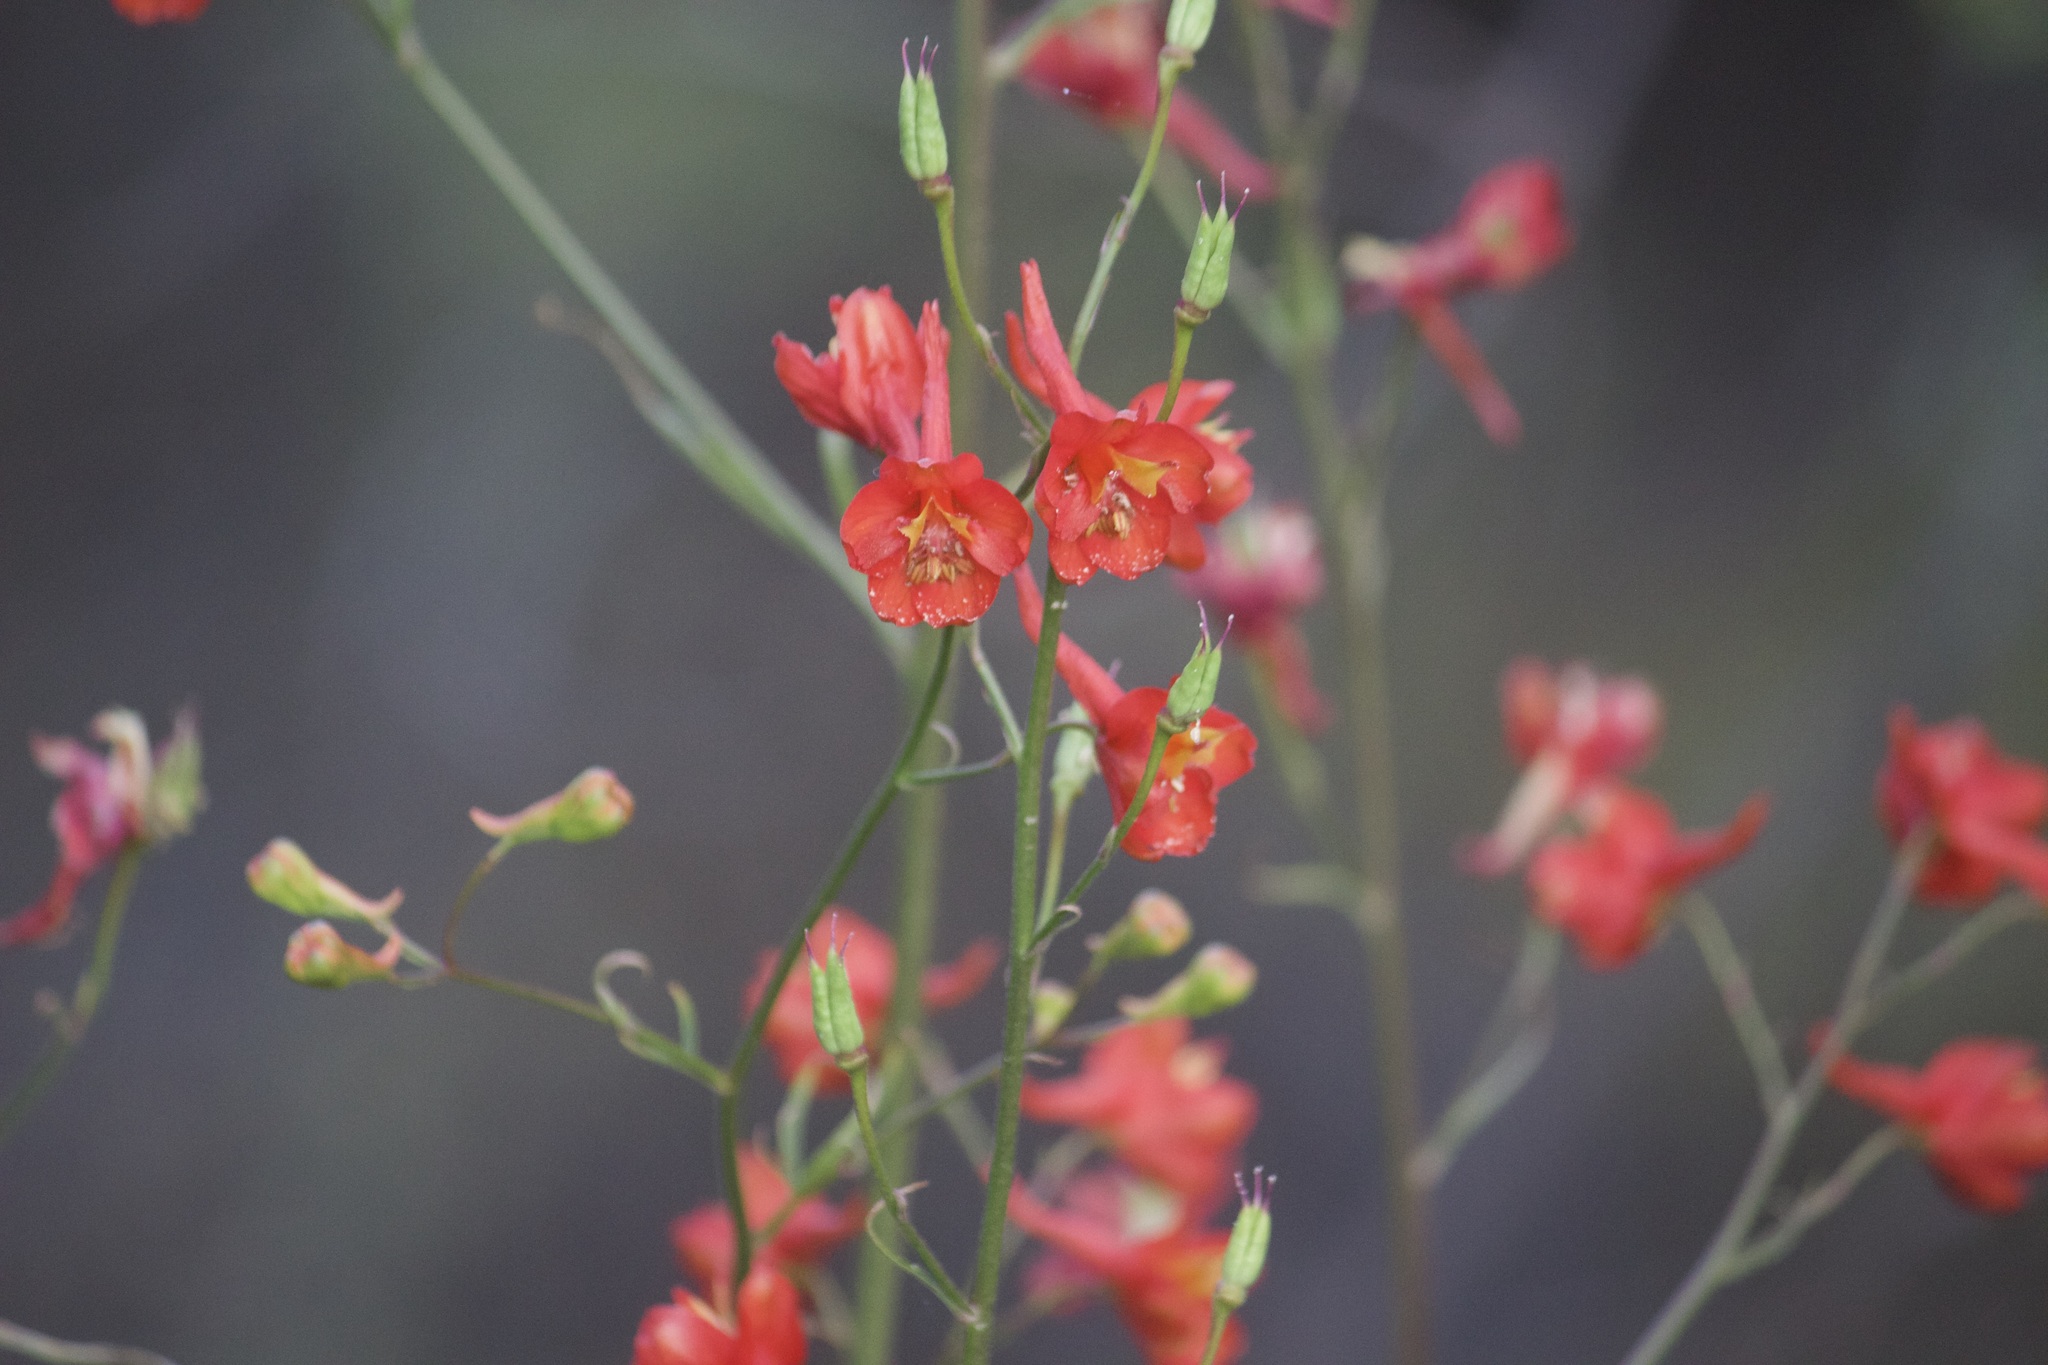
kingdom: Plantae
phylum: Tracheophyta
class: Magnoliopsida
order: Ranunculales
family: Ranunculaceae
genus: Delphinium
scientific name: Delphinium cardinale
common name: Scarlet larkspur
